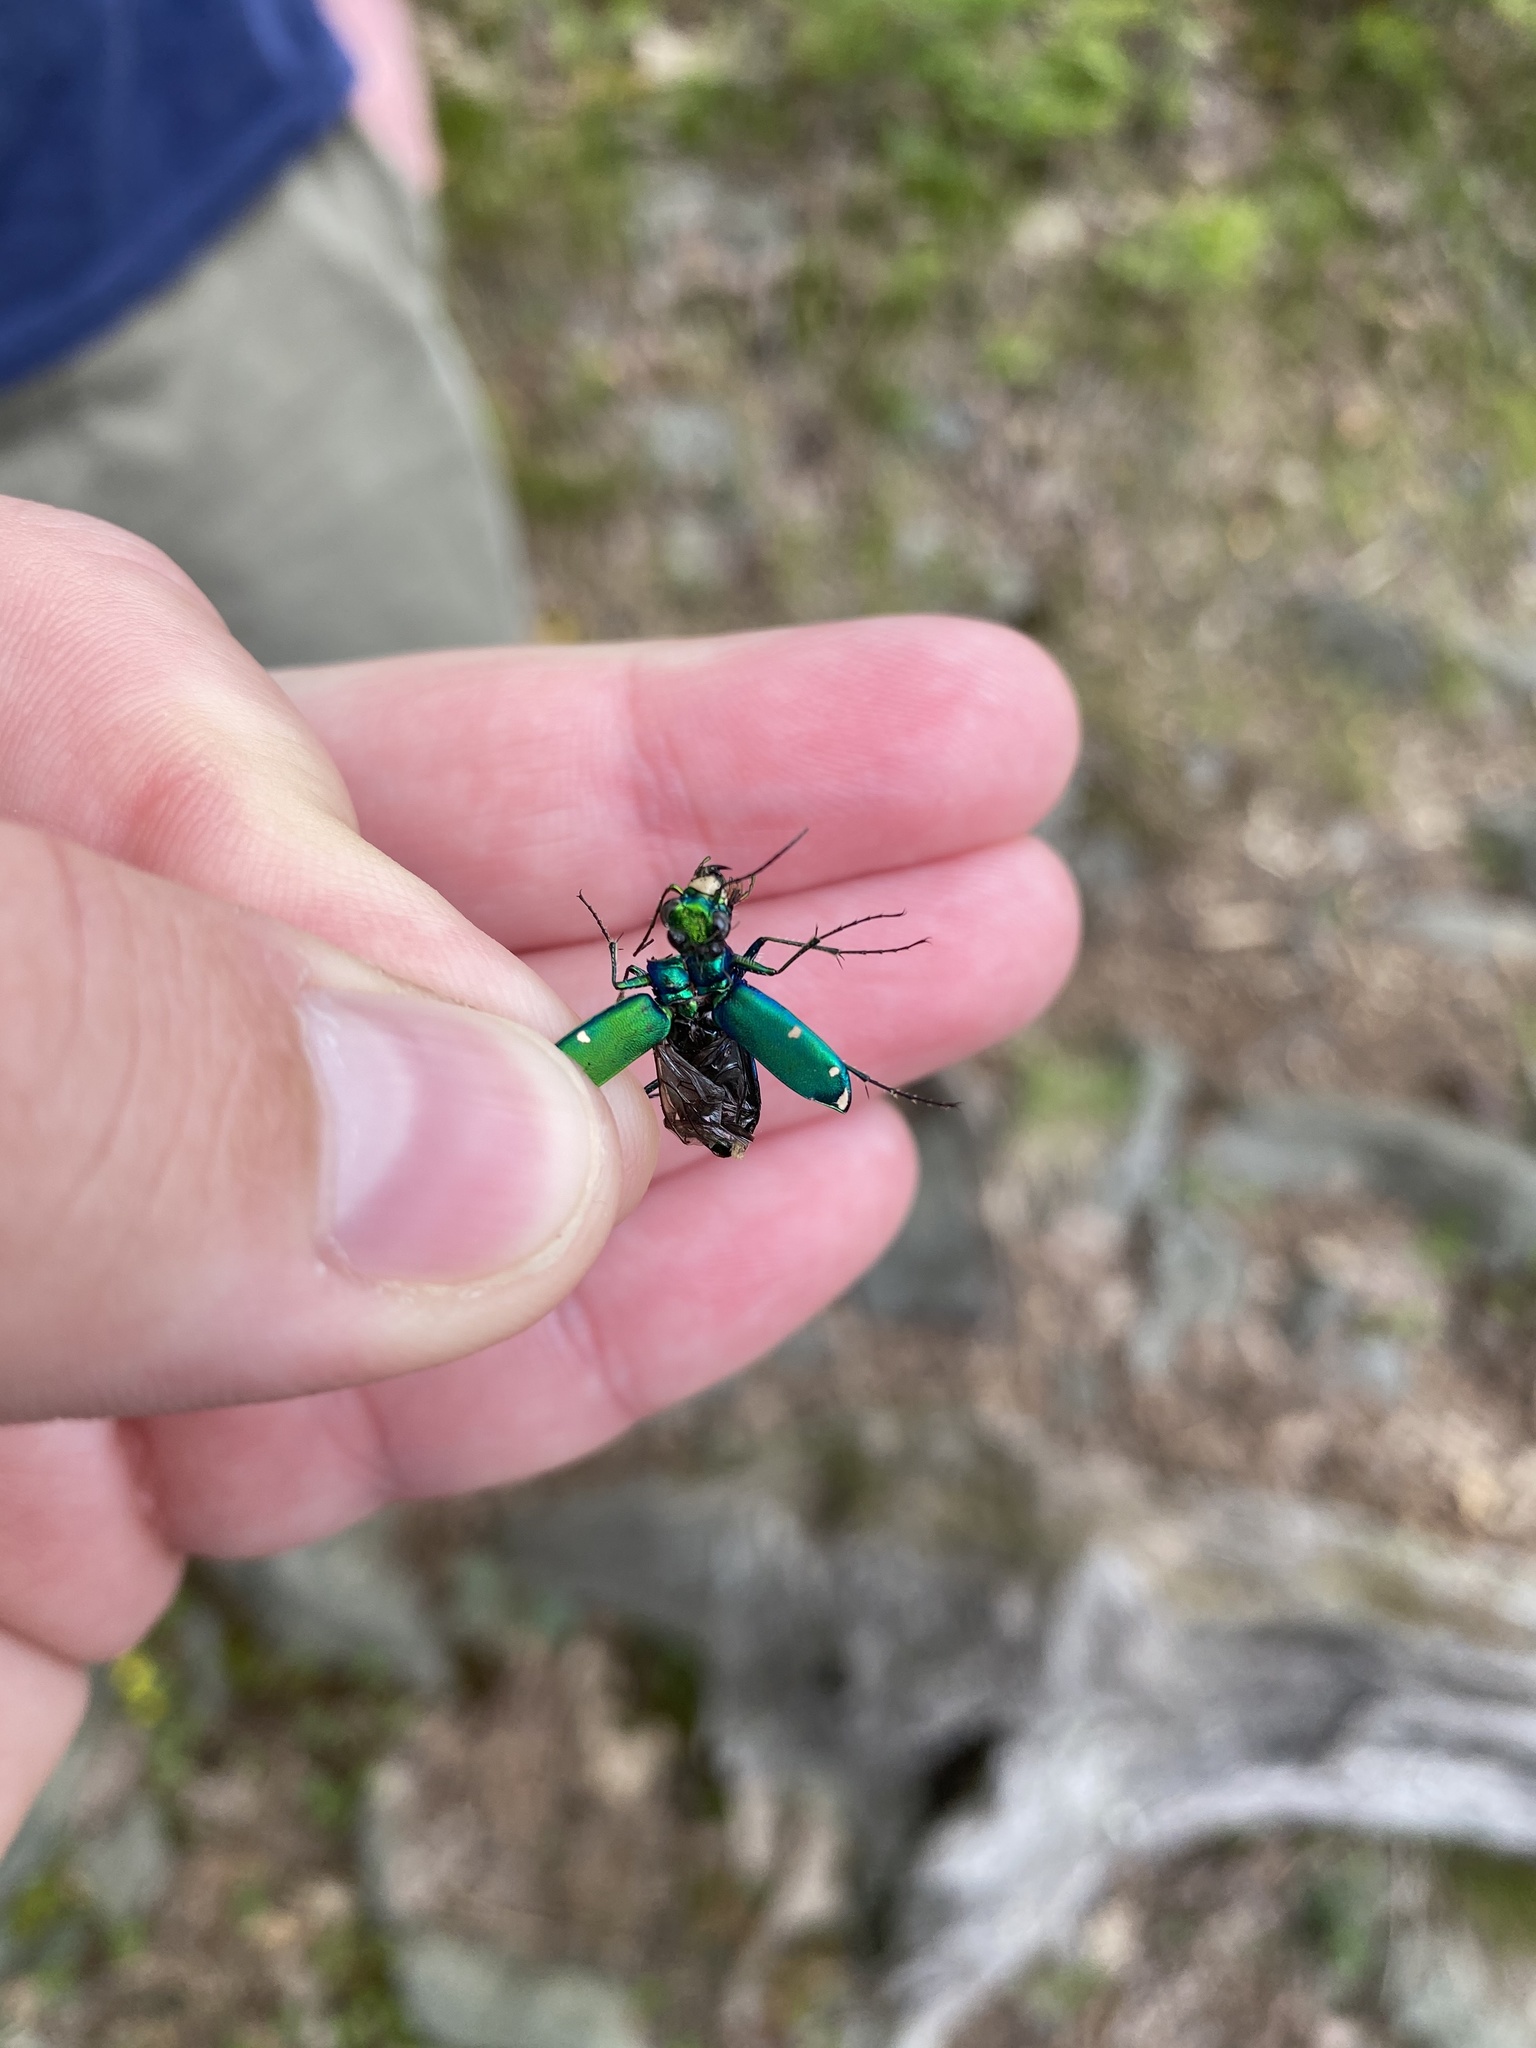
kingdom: Animalia
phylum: Arthropoda
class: Insecta
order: Coleoptera
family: Carabidae
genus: Cicindela
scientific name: Cicindela sexguttata
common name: Six-spotted tiger beetle
